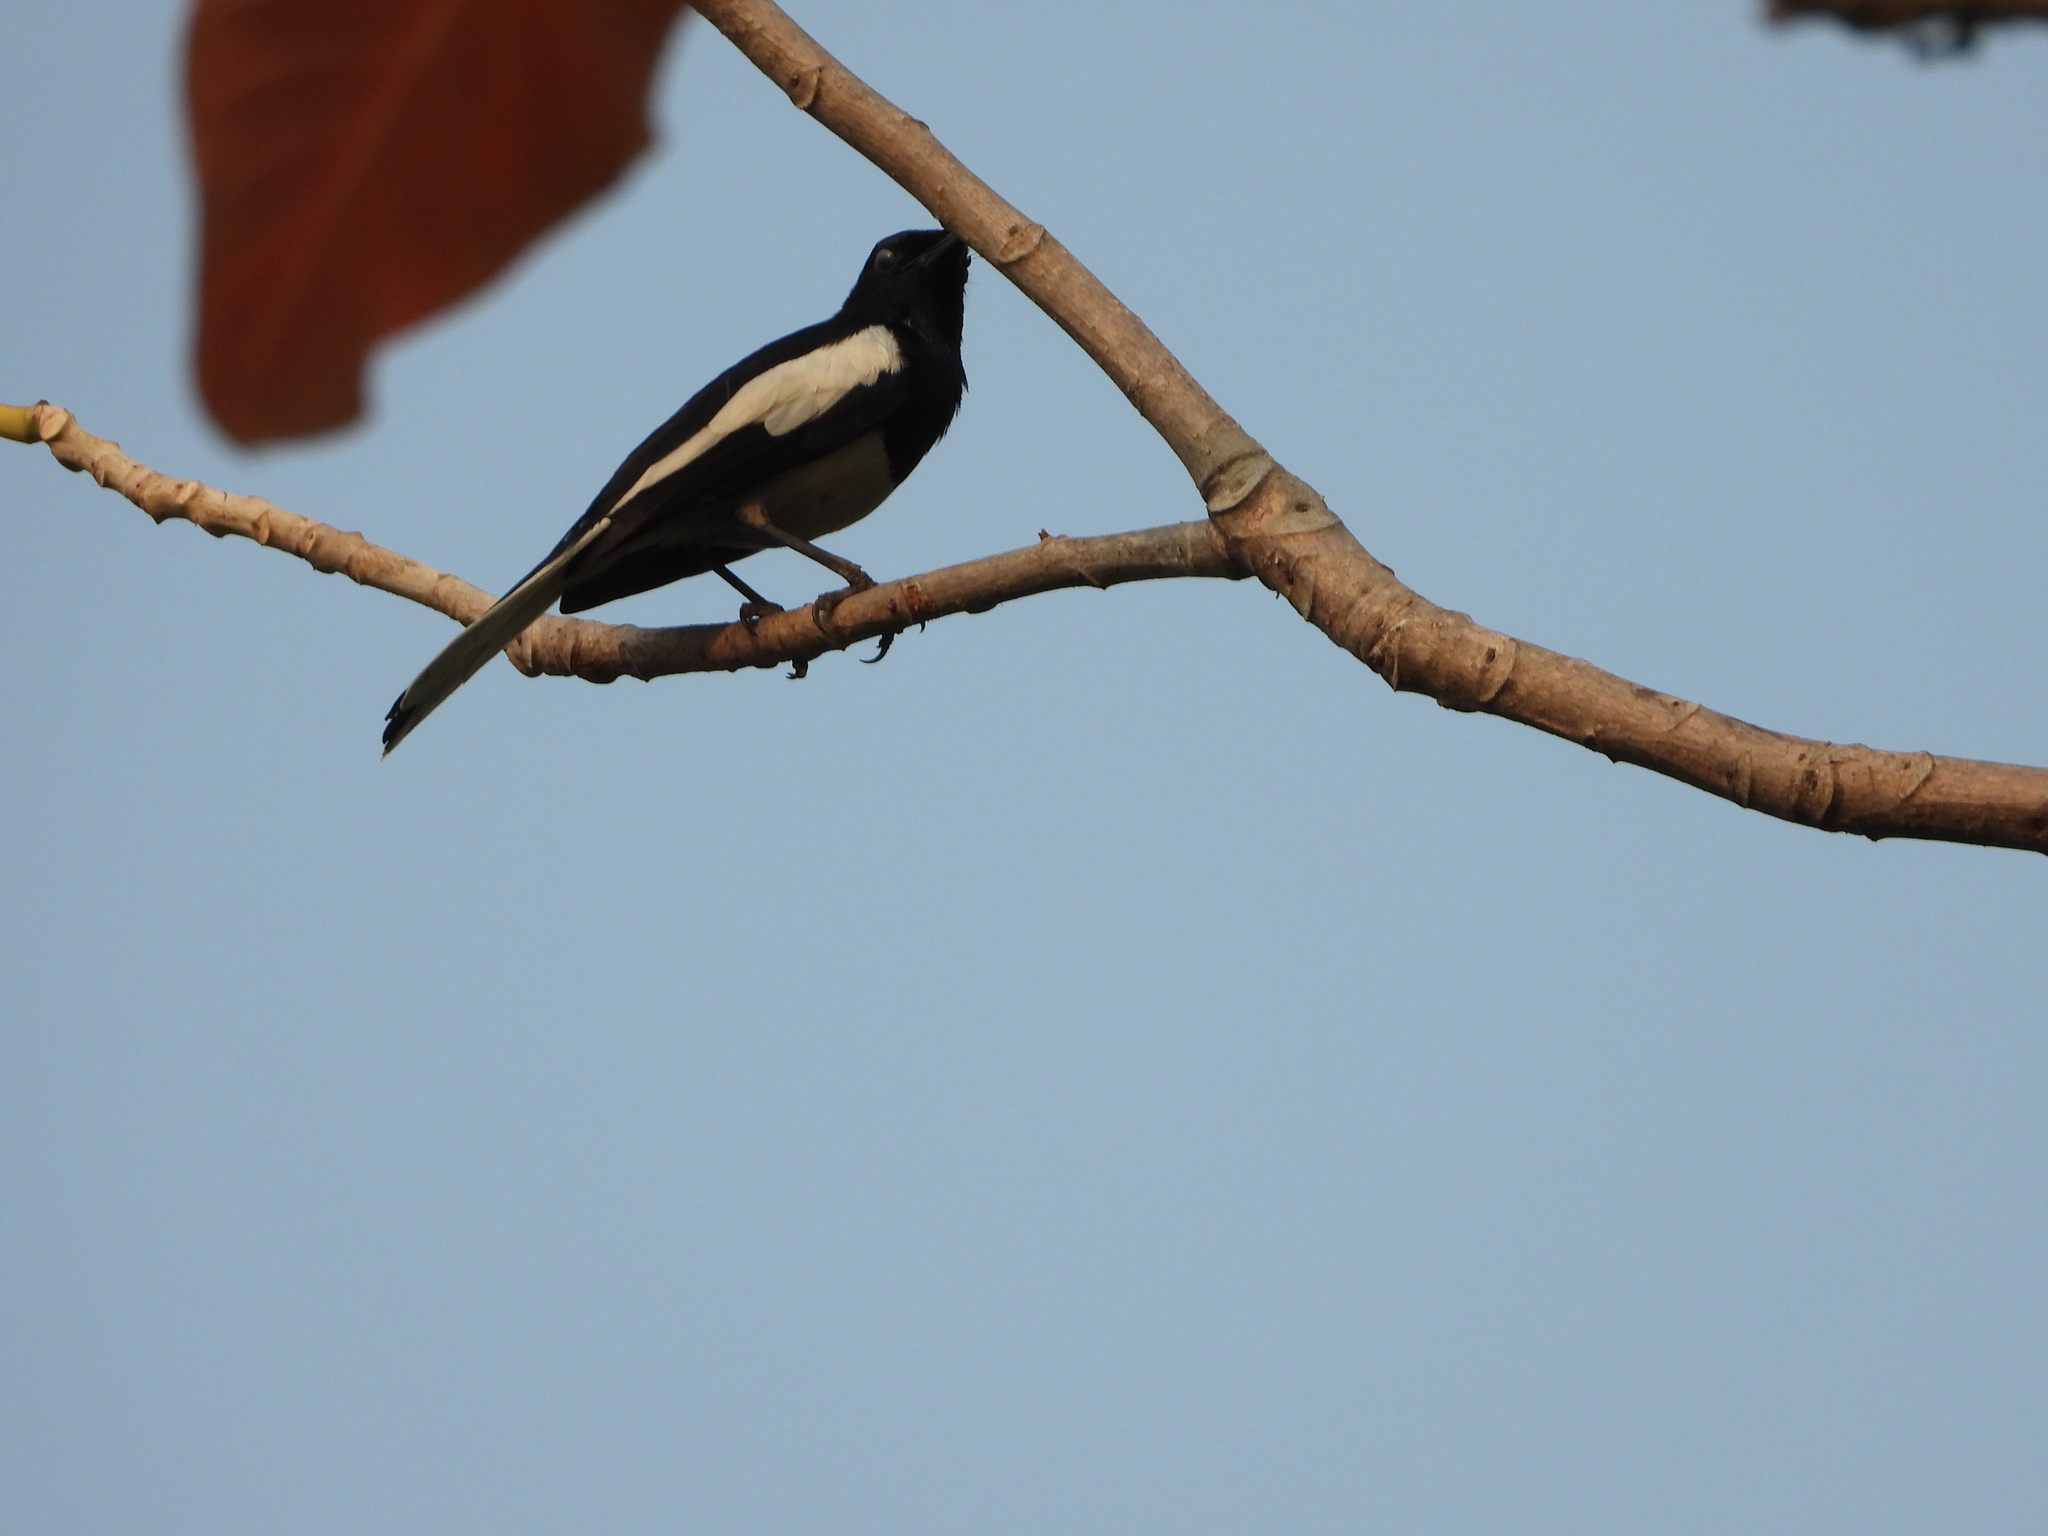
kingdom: Animalia
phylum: Chordata
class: Aves
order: Passeriformes
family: Muscicapidae
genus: Copsychus
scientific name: Copsychus saularis
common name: Oriental magpie-robin
